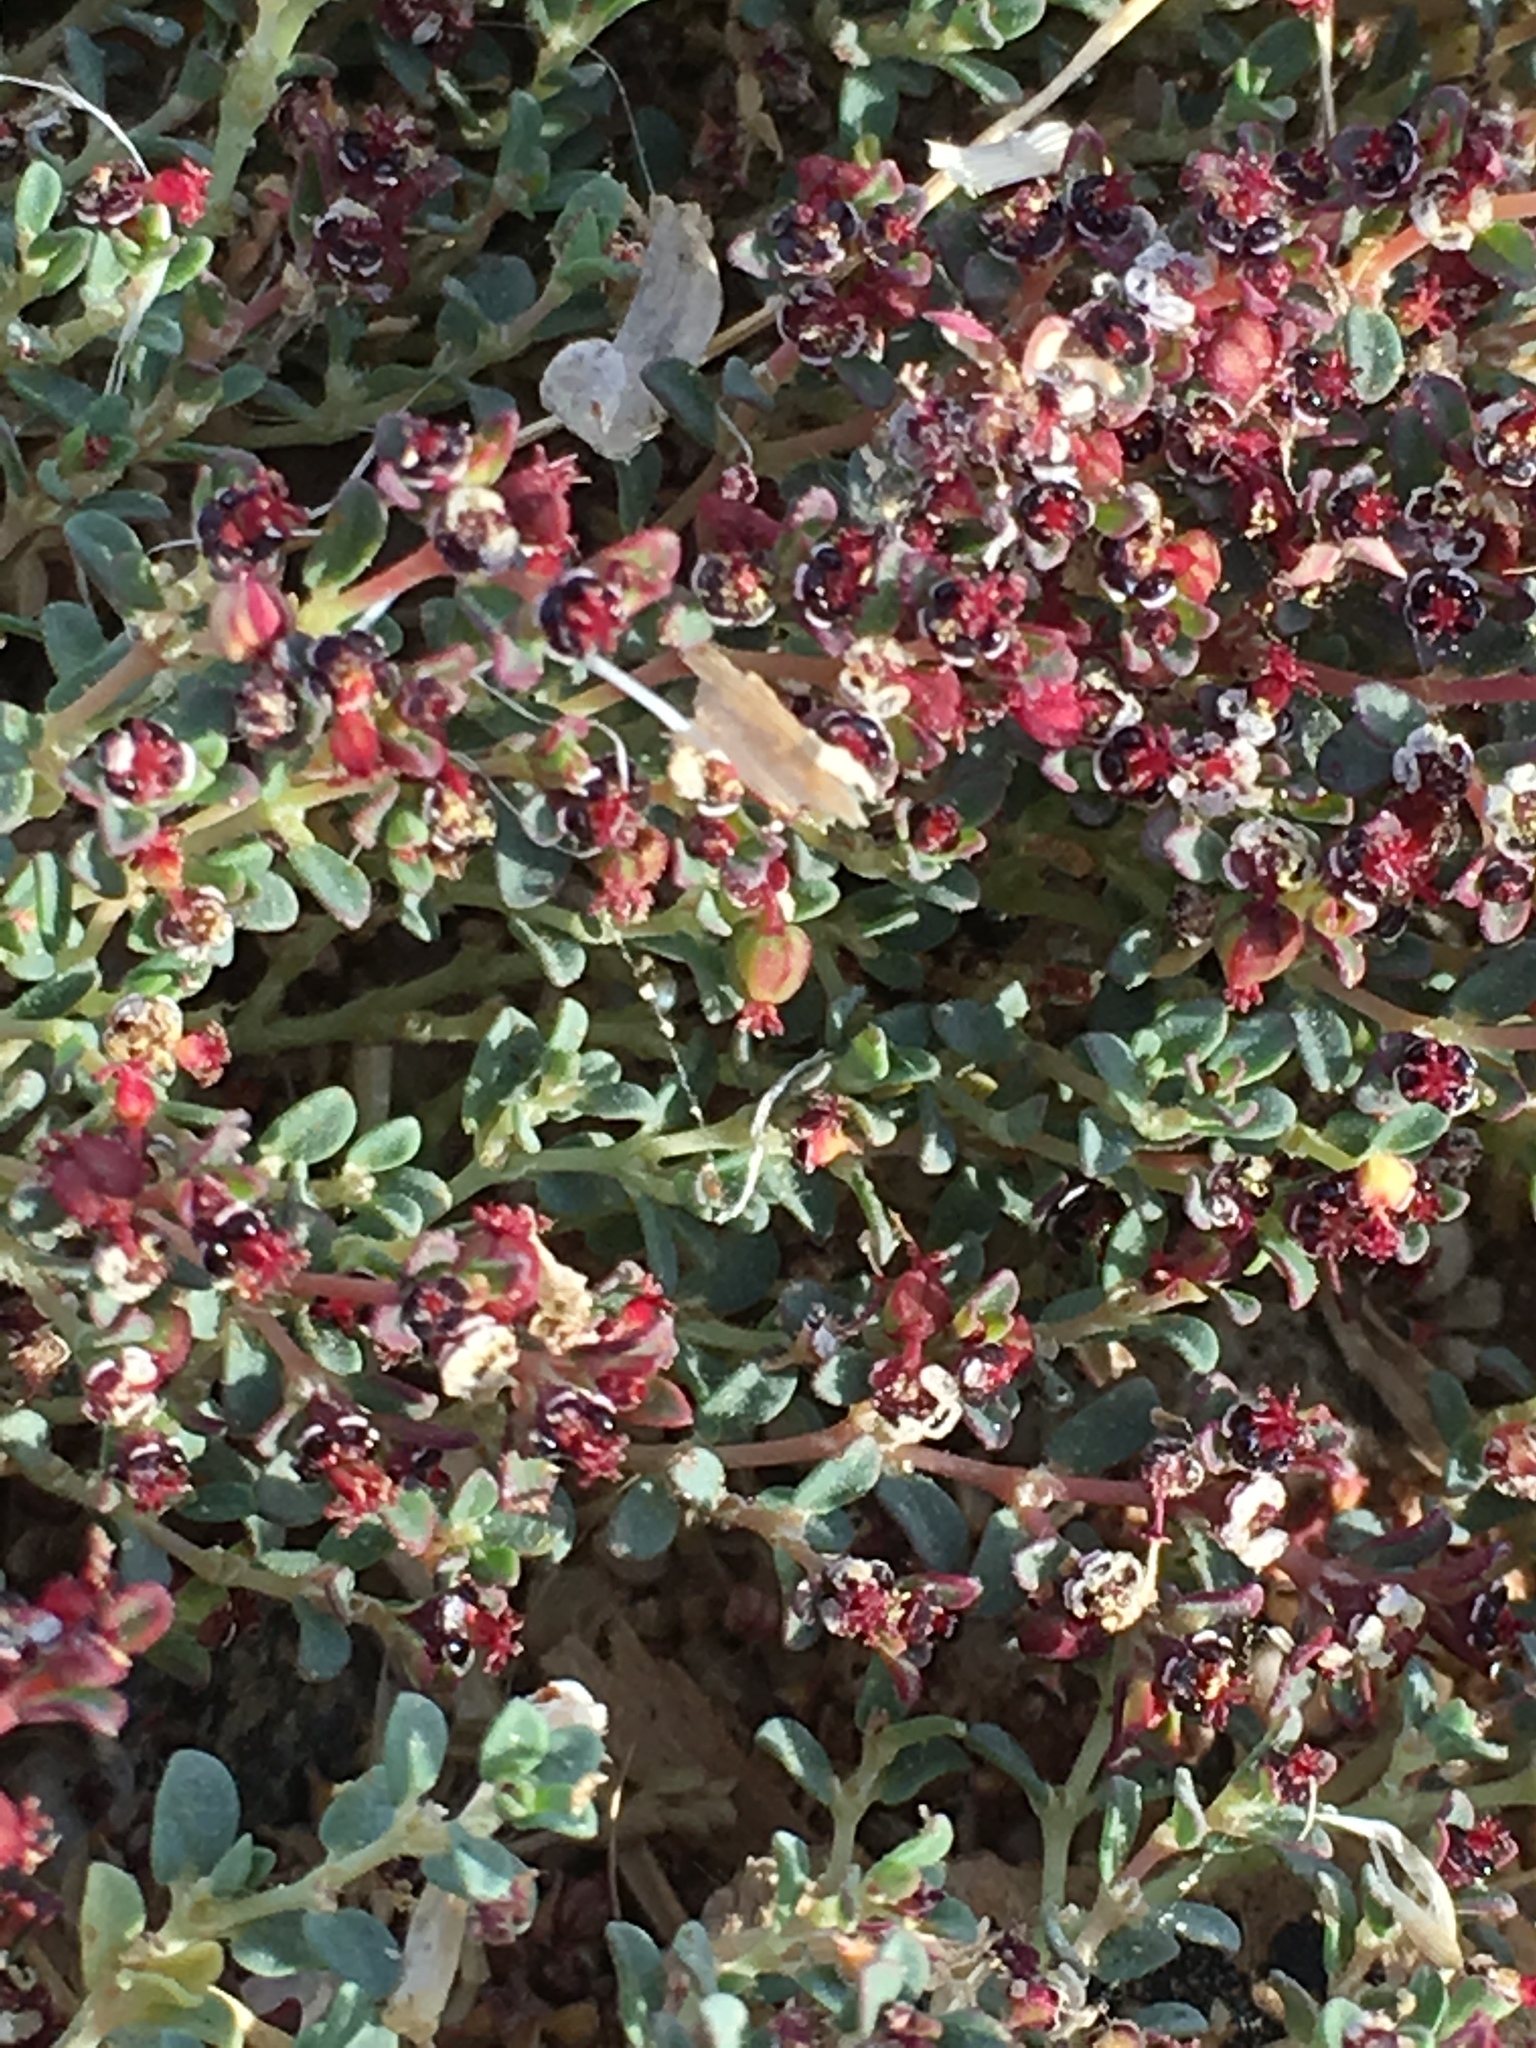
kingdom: Plantae
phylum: Tracheophyta
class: Magnoliopsida
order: Malpighiales
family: Euphorbiaceae
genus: Euphorbia
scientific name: Euphorbia polycarpa
